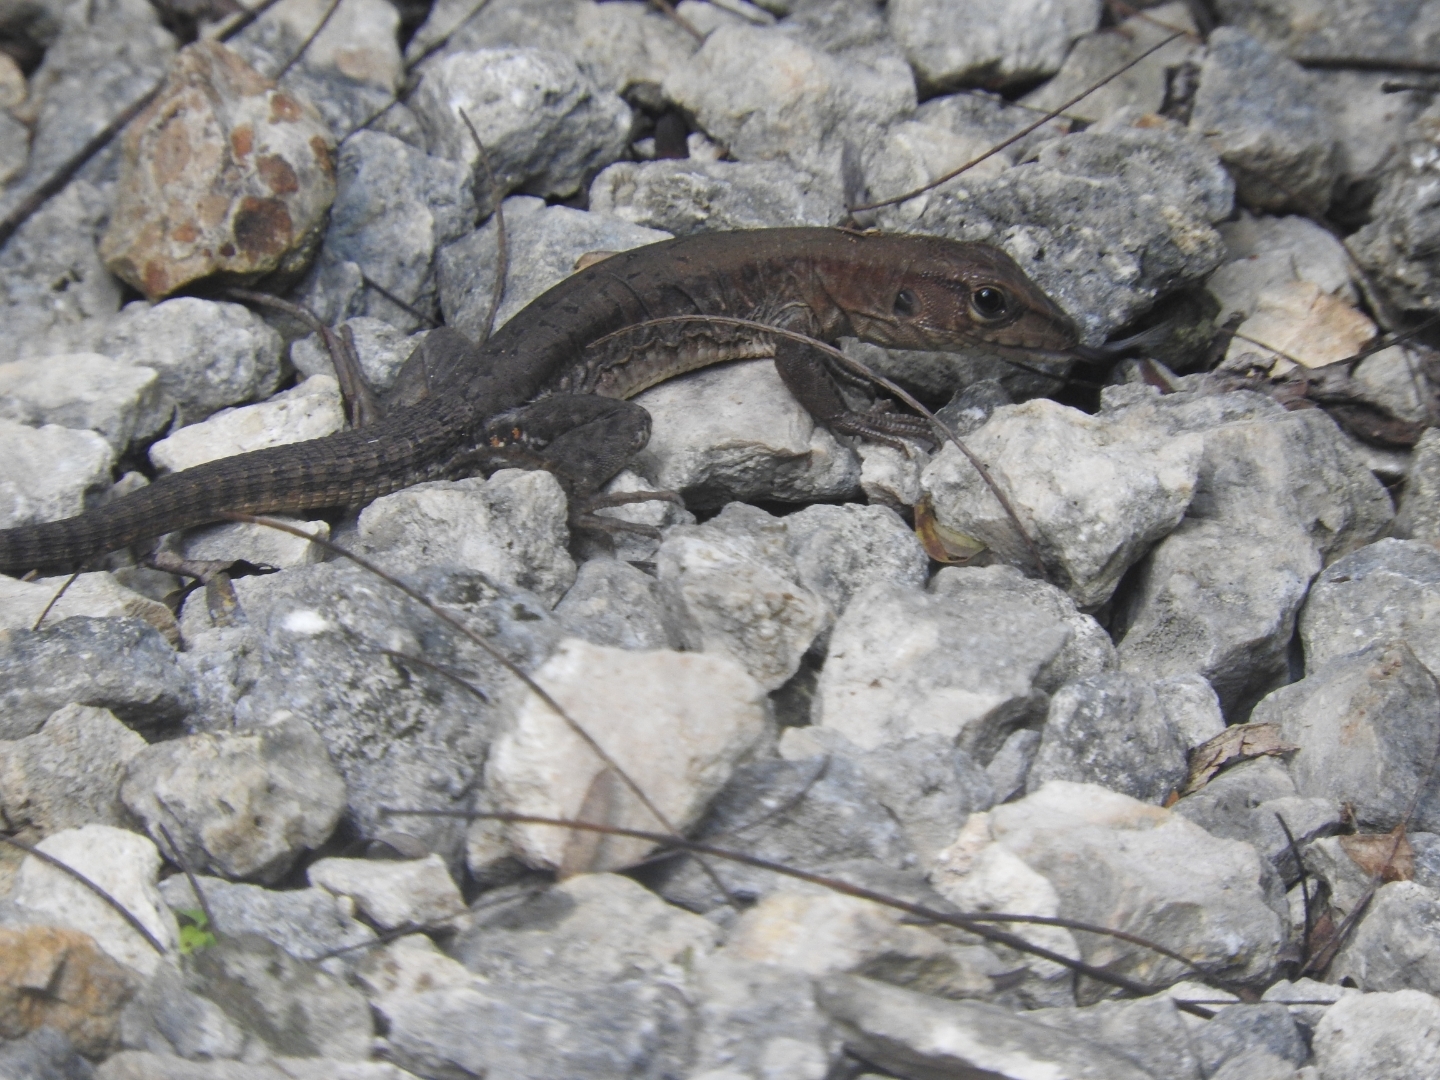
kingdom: Animalia
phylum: Chordata
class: Squamata
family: Teiidae
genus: Holcosus
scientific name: Holcosus undulatus
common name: Rainbow ameiva
